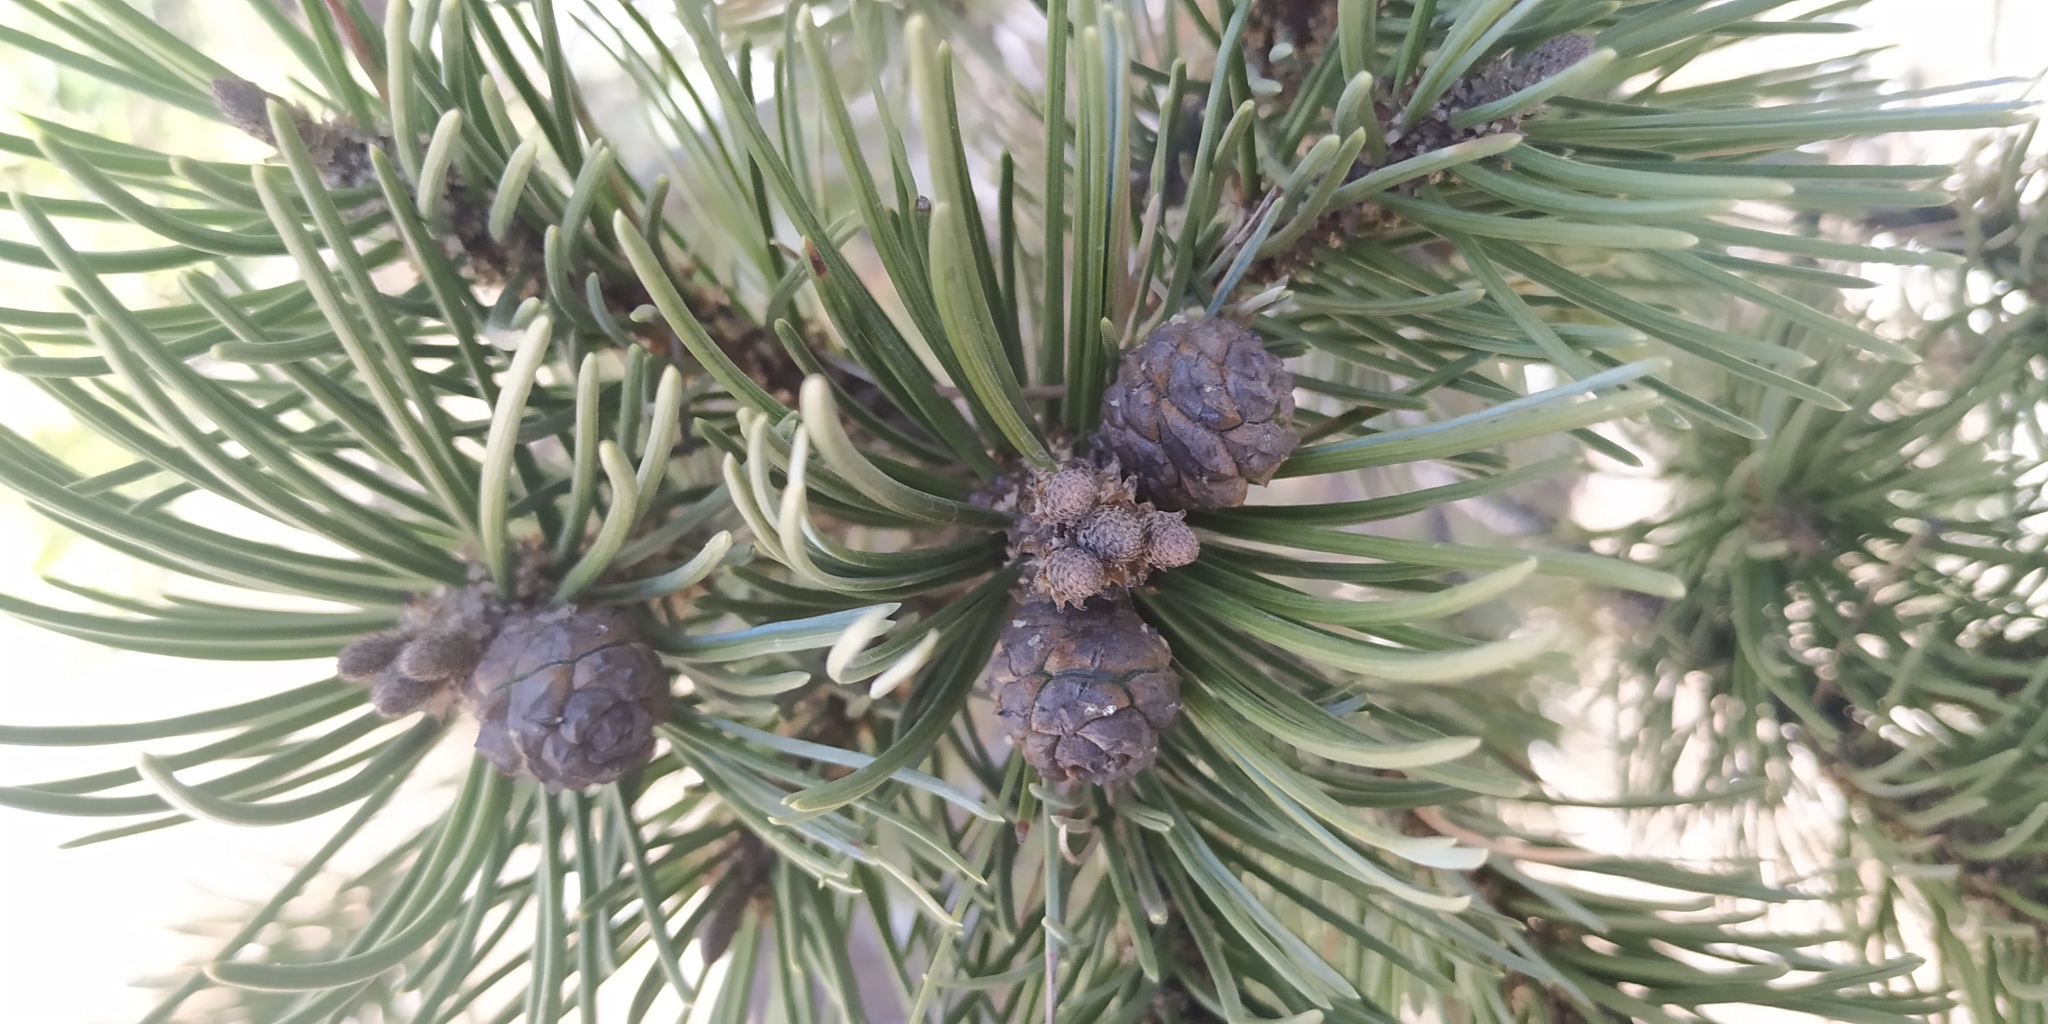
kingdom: Plantae
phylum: Tracheophyta
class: Pinopsida
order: Pinales
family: Pinaceae
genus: Pinus
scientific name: Pinus cembroides
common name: Mexican nut pine
